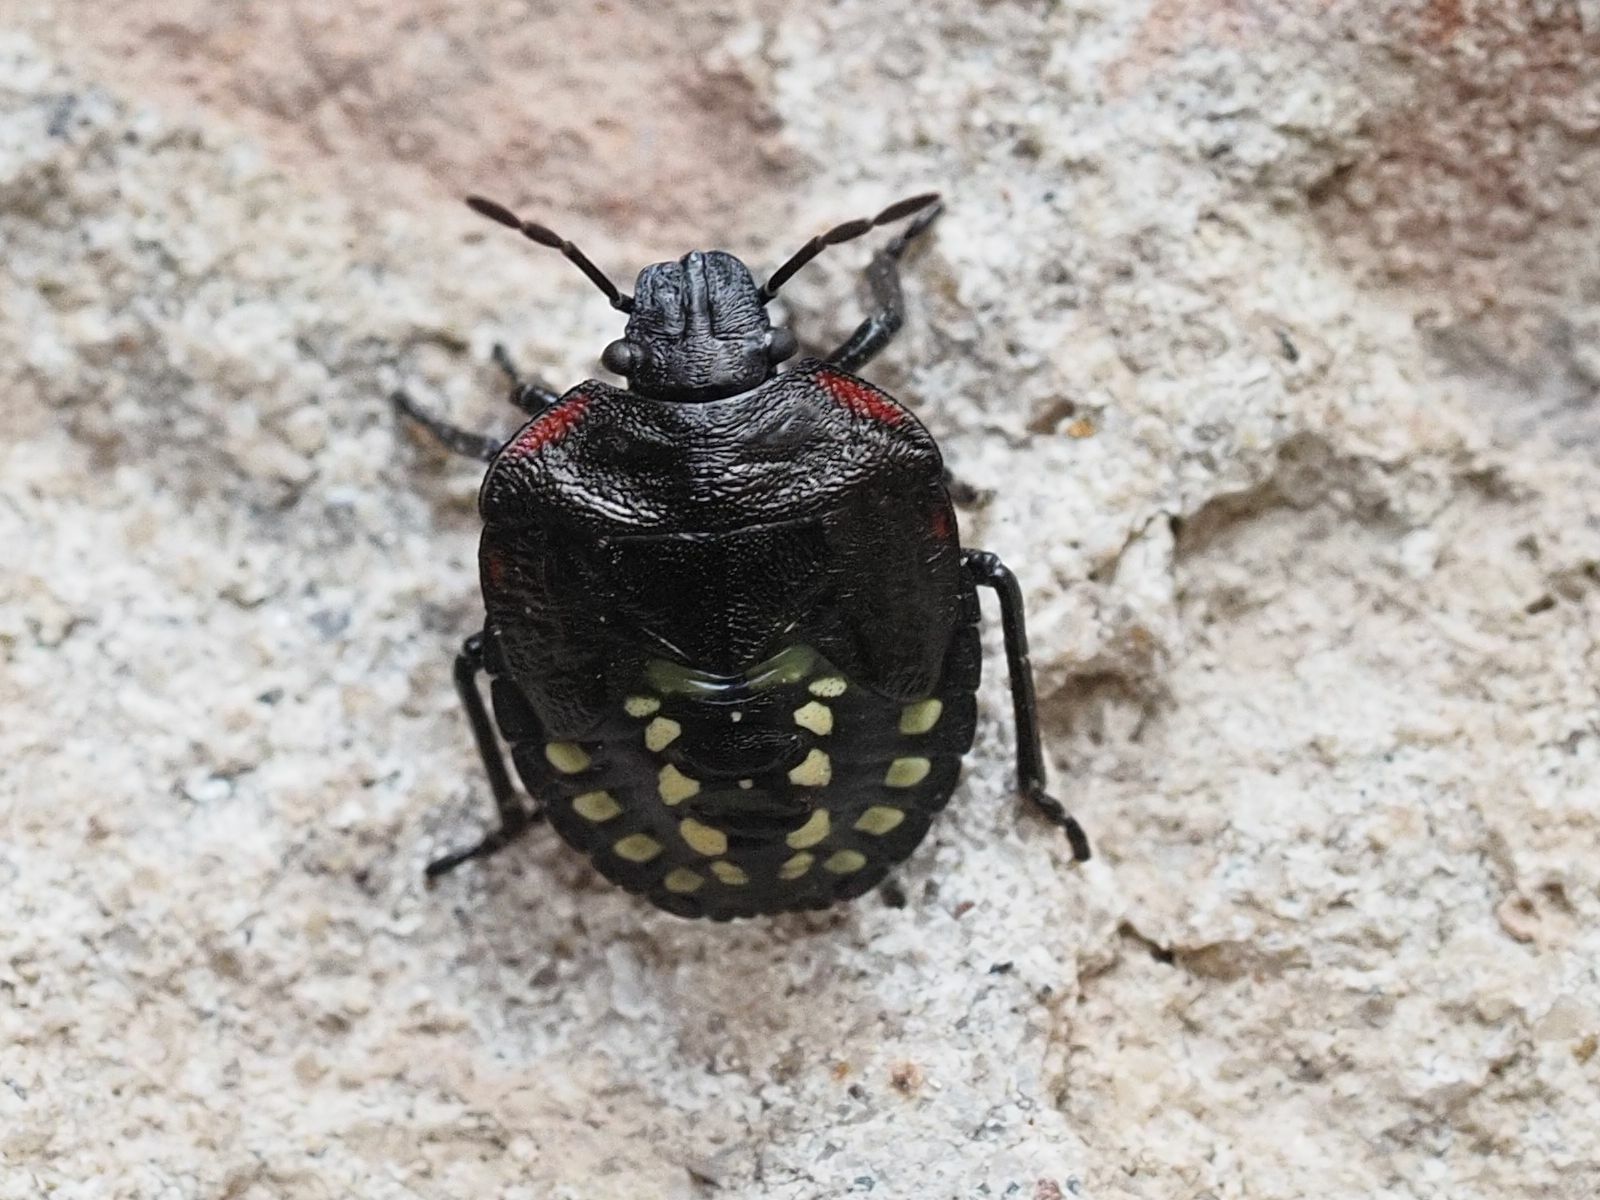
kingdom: Animalia
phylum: Arthropoda
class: Insecta
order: Hemiptera
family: Pentatomidae
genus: Nezara
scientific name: Nezara viridula
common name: Southern green stink bug
